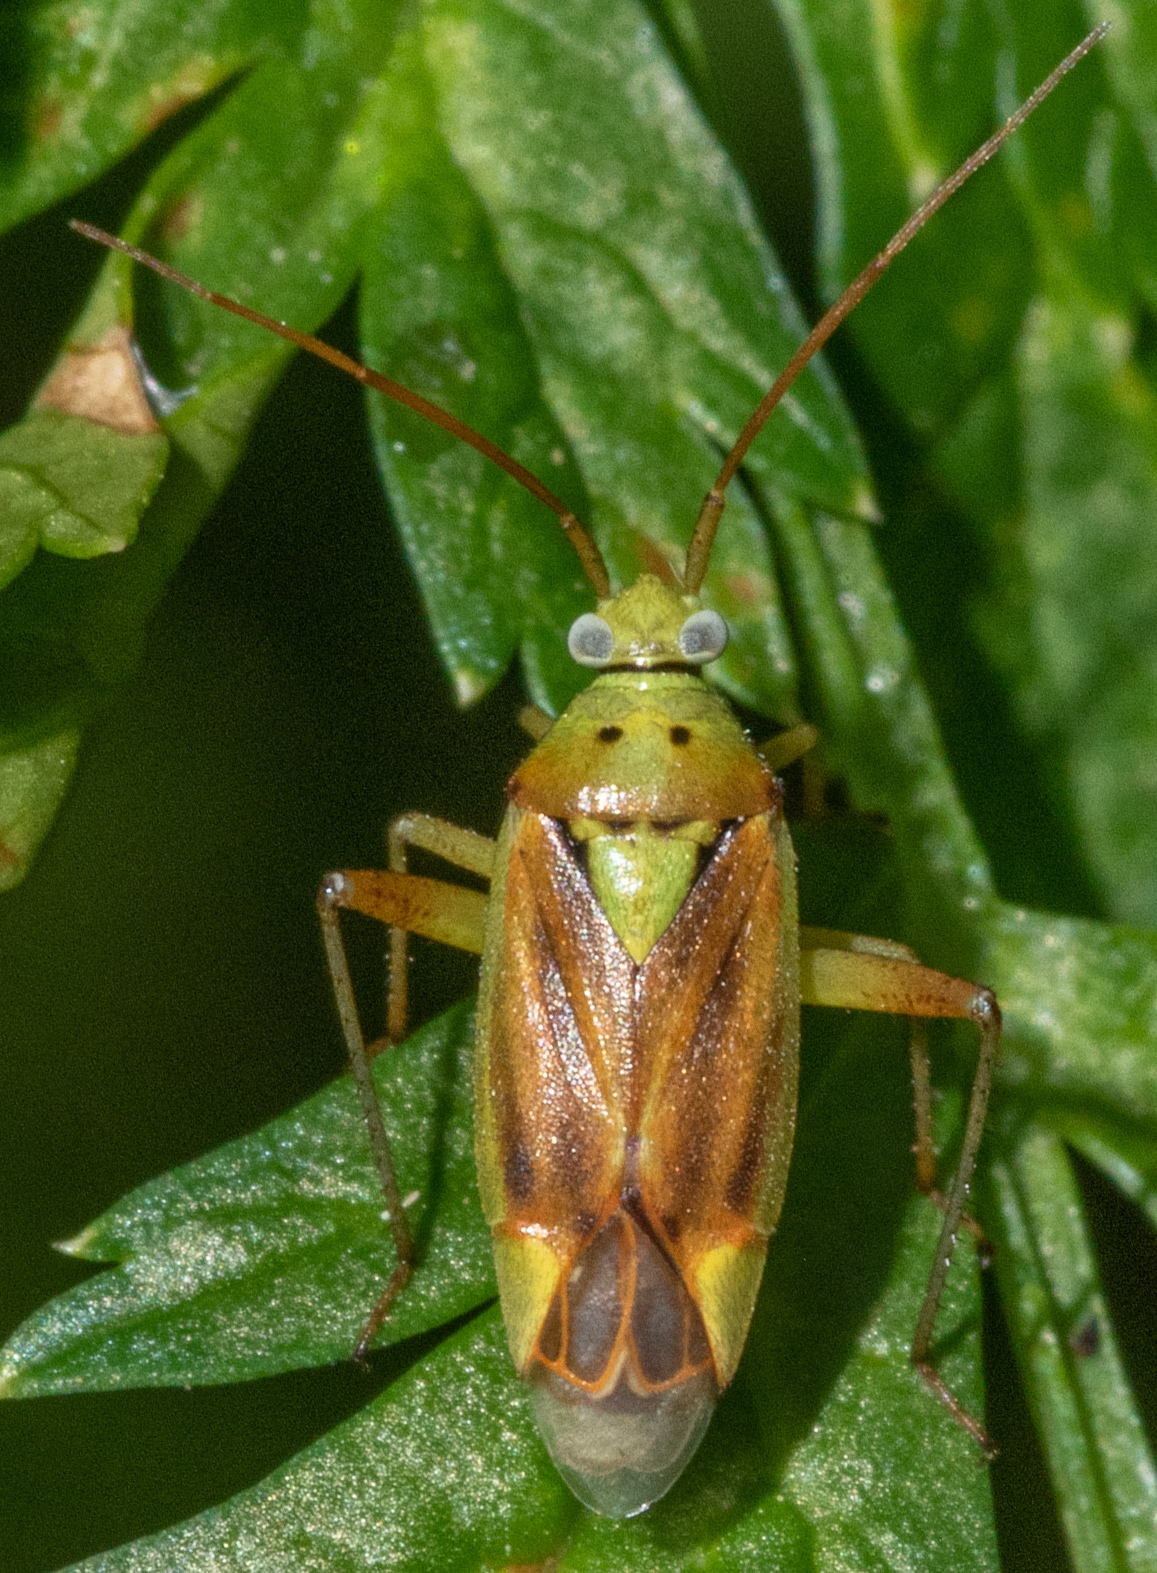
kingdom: Animalia
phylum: Arthropoda
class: Insecta
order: Hemiptera
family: Miridae
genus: Closterotomus
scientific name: Closterotomus norvegicus
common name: Plant bug
